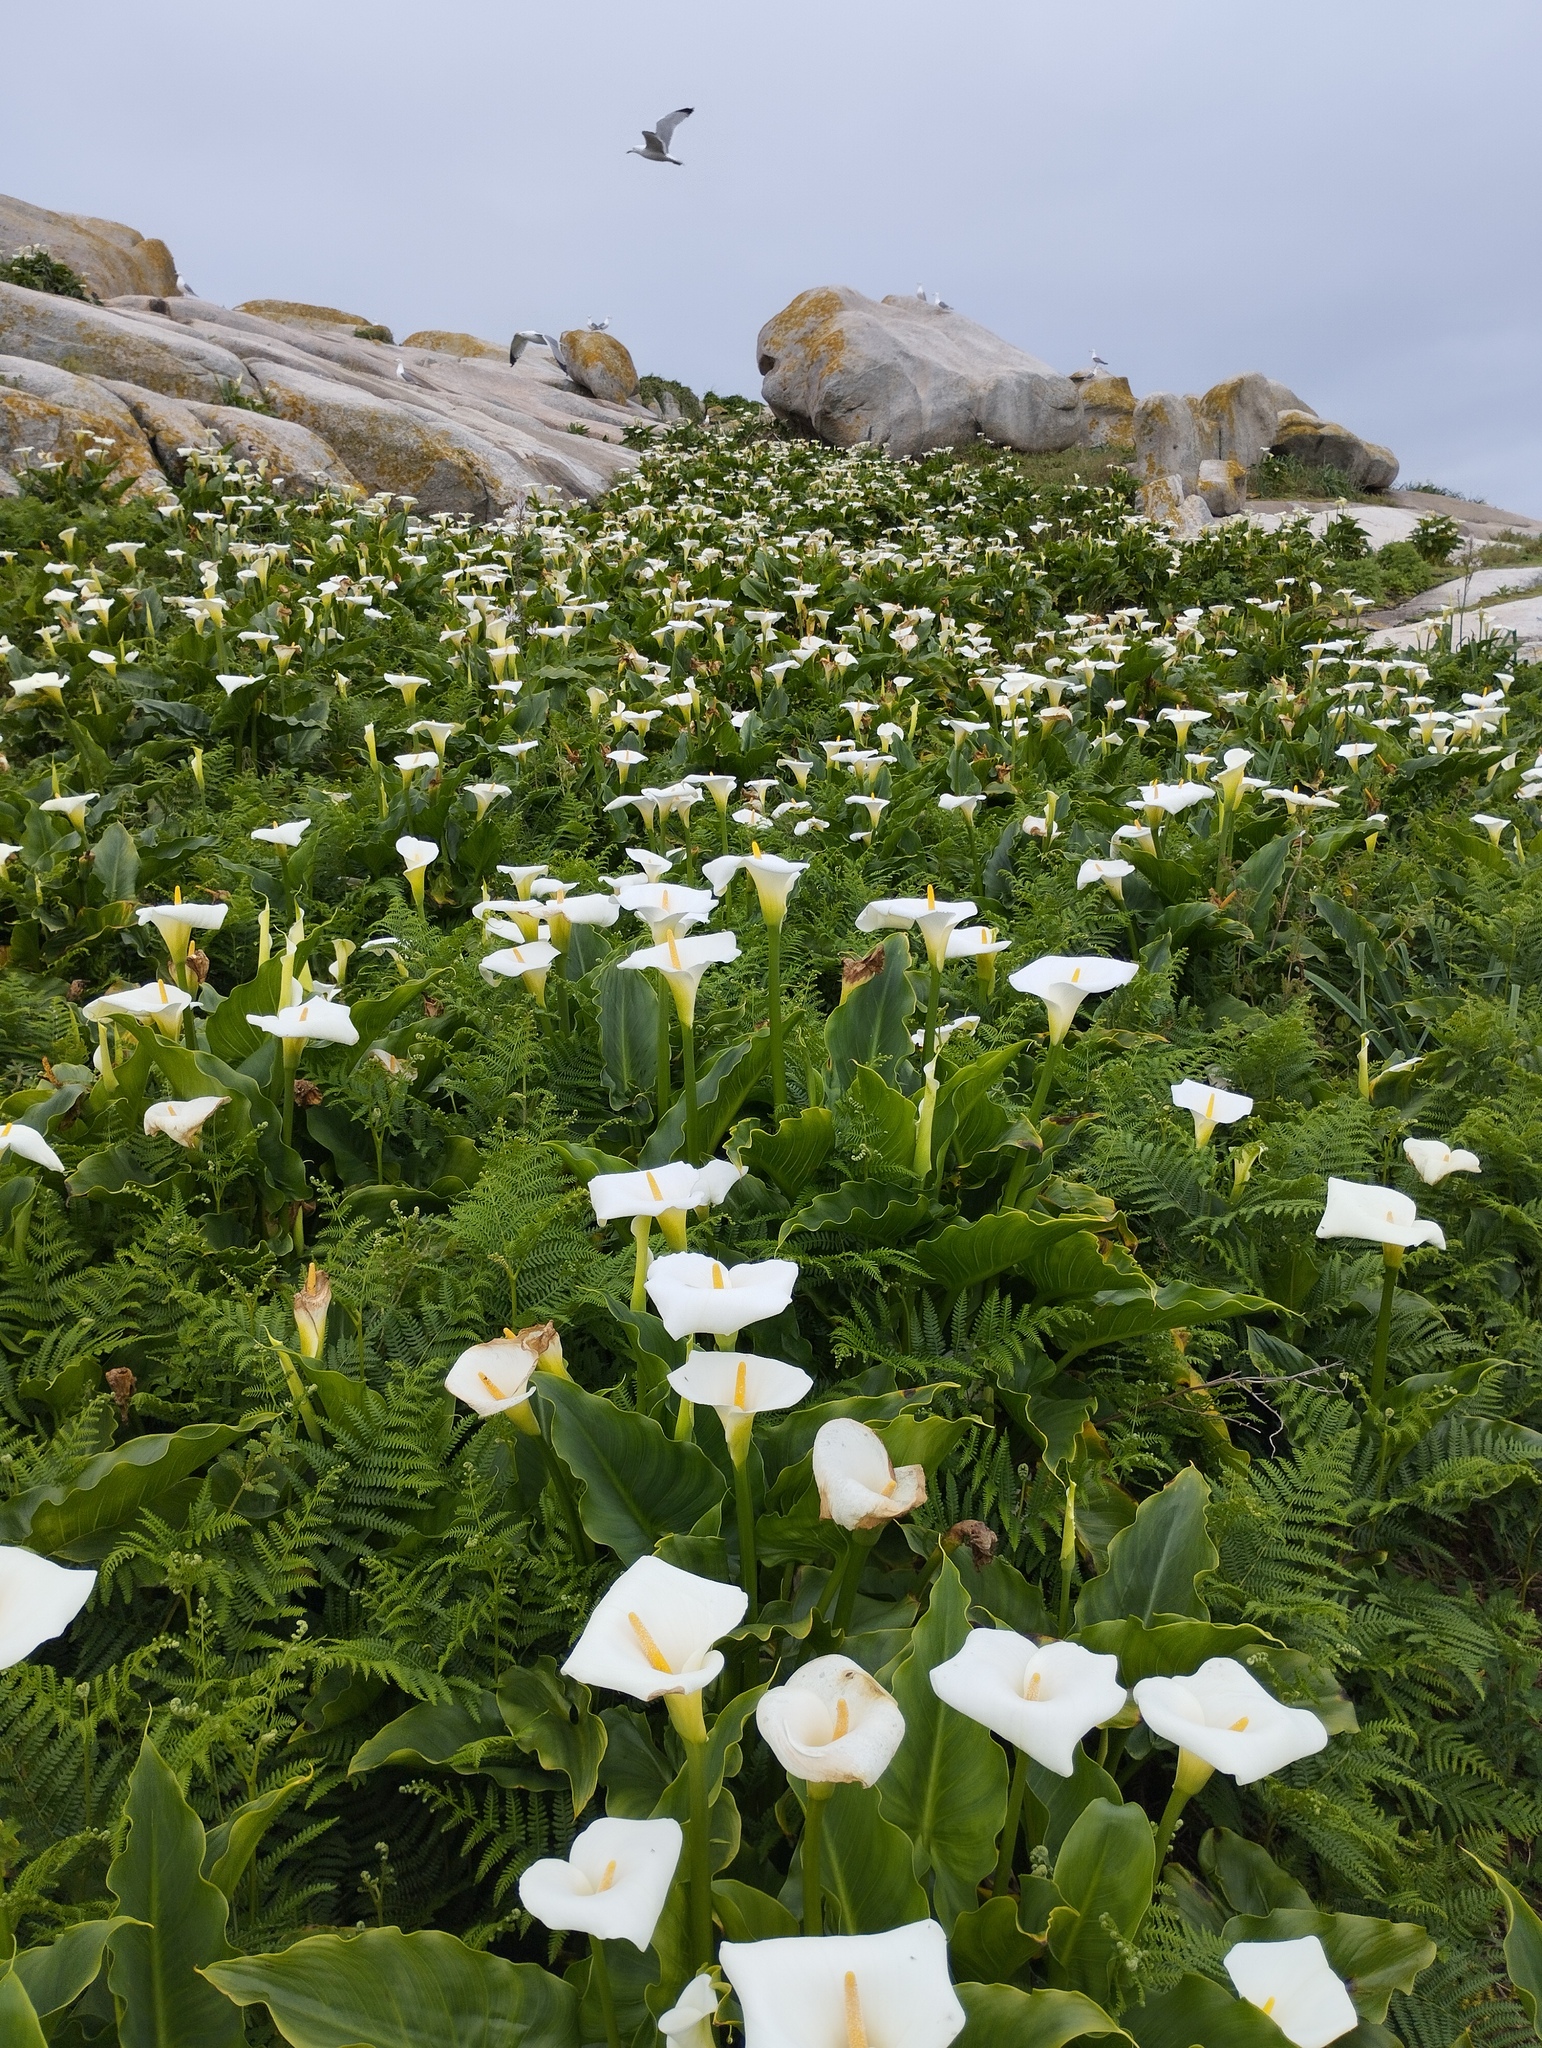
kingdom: Plantae
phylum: Tracheophyta
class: Liliopsida
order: Alismatales
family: Araceae
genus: Zantedeschia
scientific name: Zantedeschia aethiopica
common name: Altar-lily
